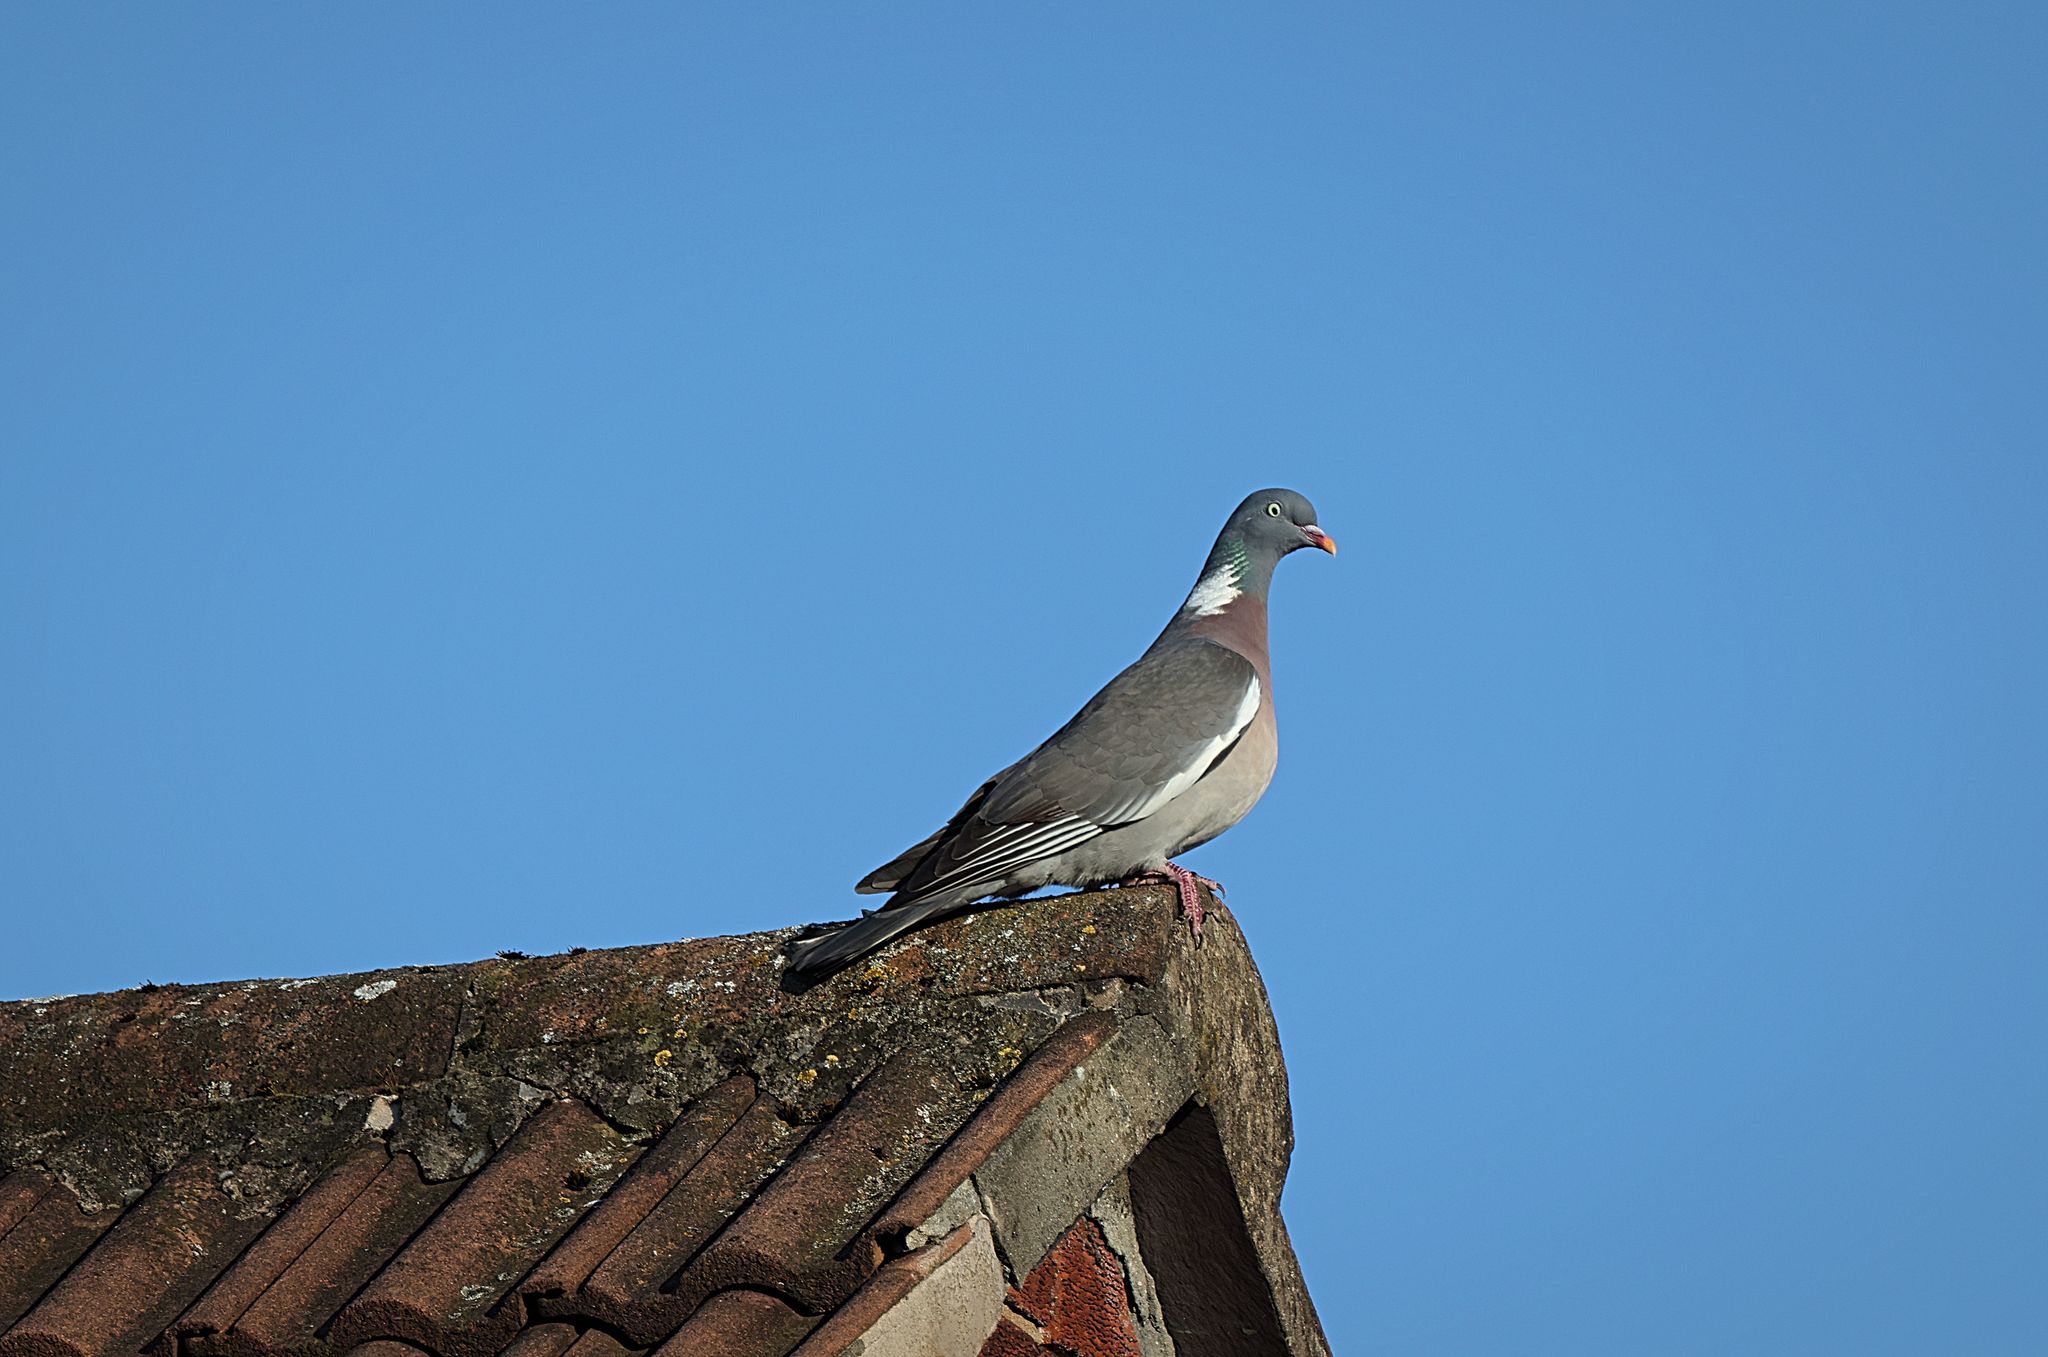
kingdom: Animalia
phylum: Chordata
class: Aves
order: Columbiformes
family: Columbidae
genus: Columba
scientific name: Columba palumbus
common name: Common wood pigeon
